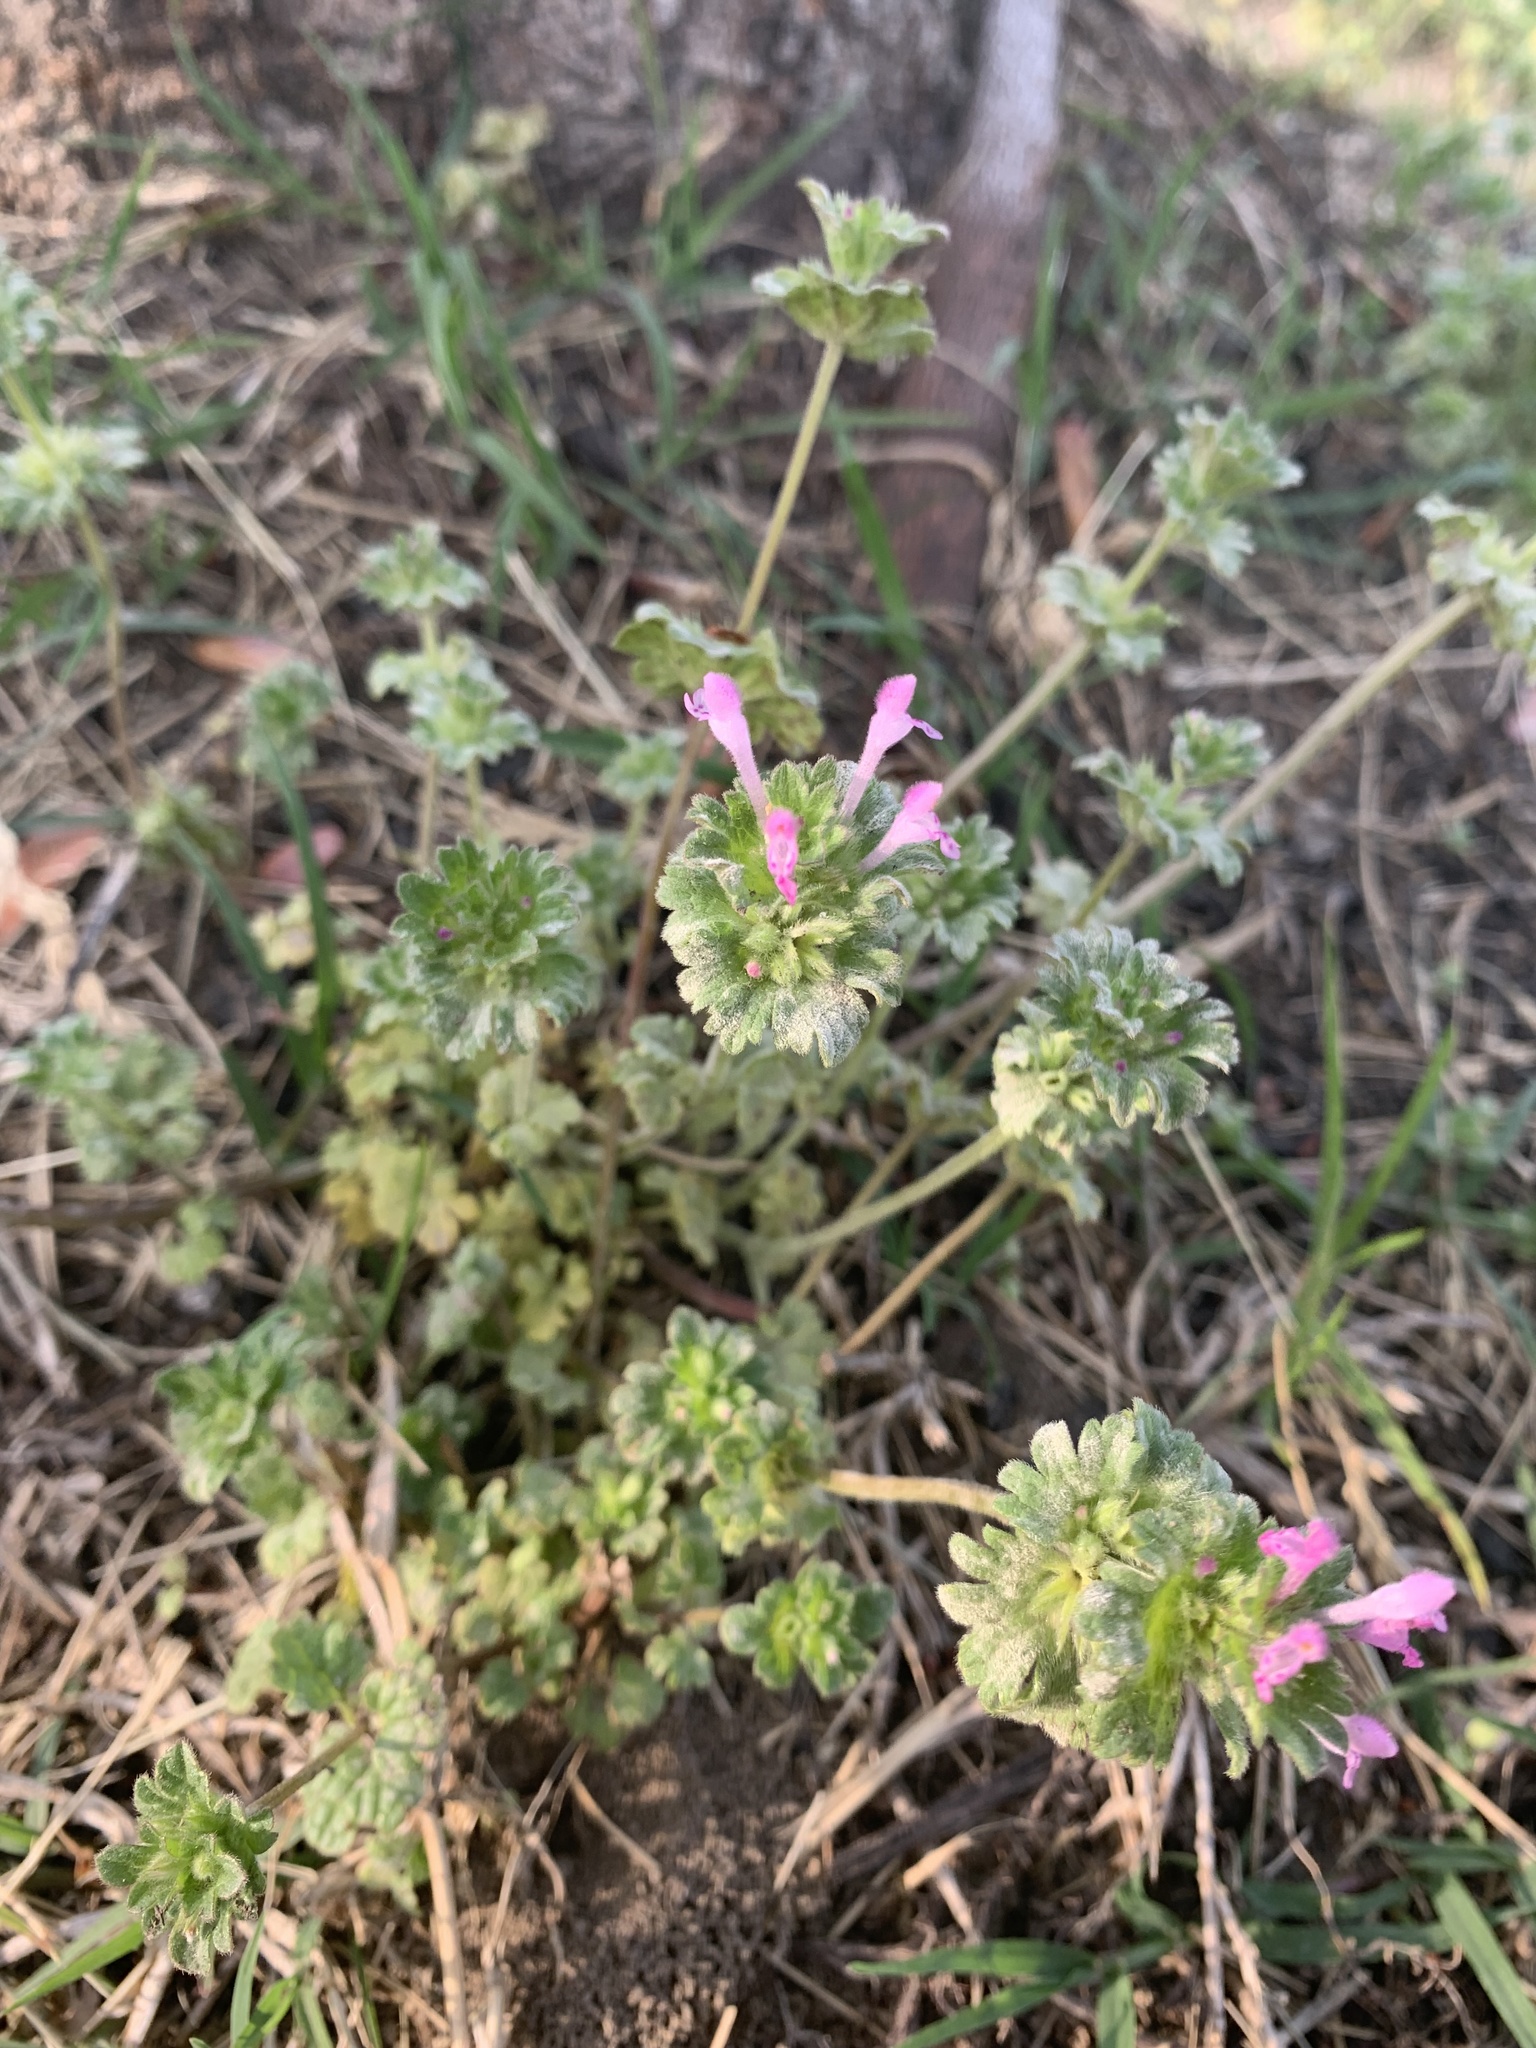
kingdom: Plantae
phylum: Tracheophyta
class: Magnoliopsida
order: Lamiales
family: Lamiaceae
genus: Lamium
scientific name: Lamium amplexicaule
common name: Henbit dead-nettle
